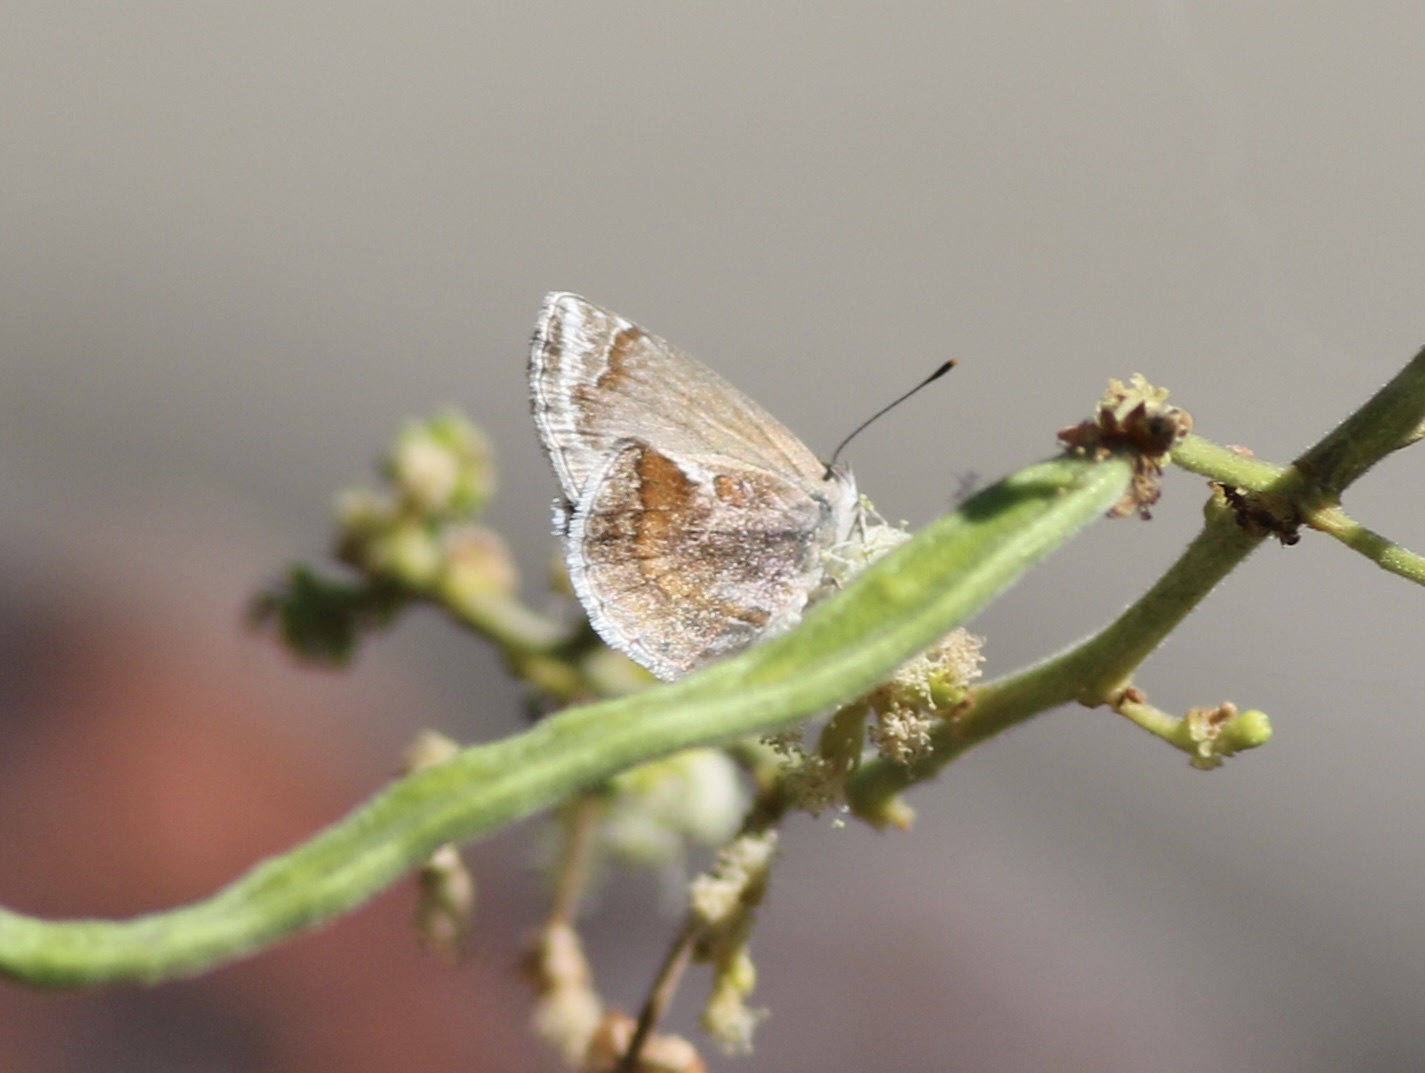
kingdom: Animalia
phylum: Arthropoda
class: Insecta
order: Lepidoptera
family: Lycaenidae
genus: Strymon
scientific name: Strymon bazochii
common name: Lantana scrub-hairstreak
